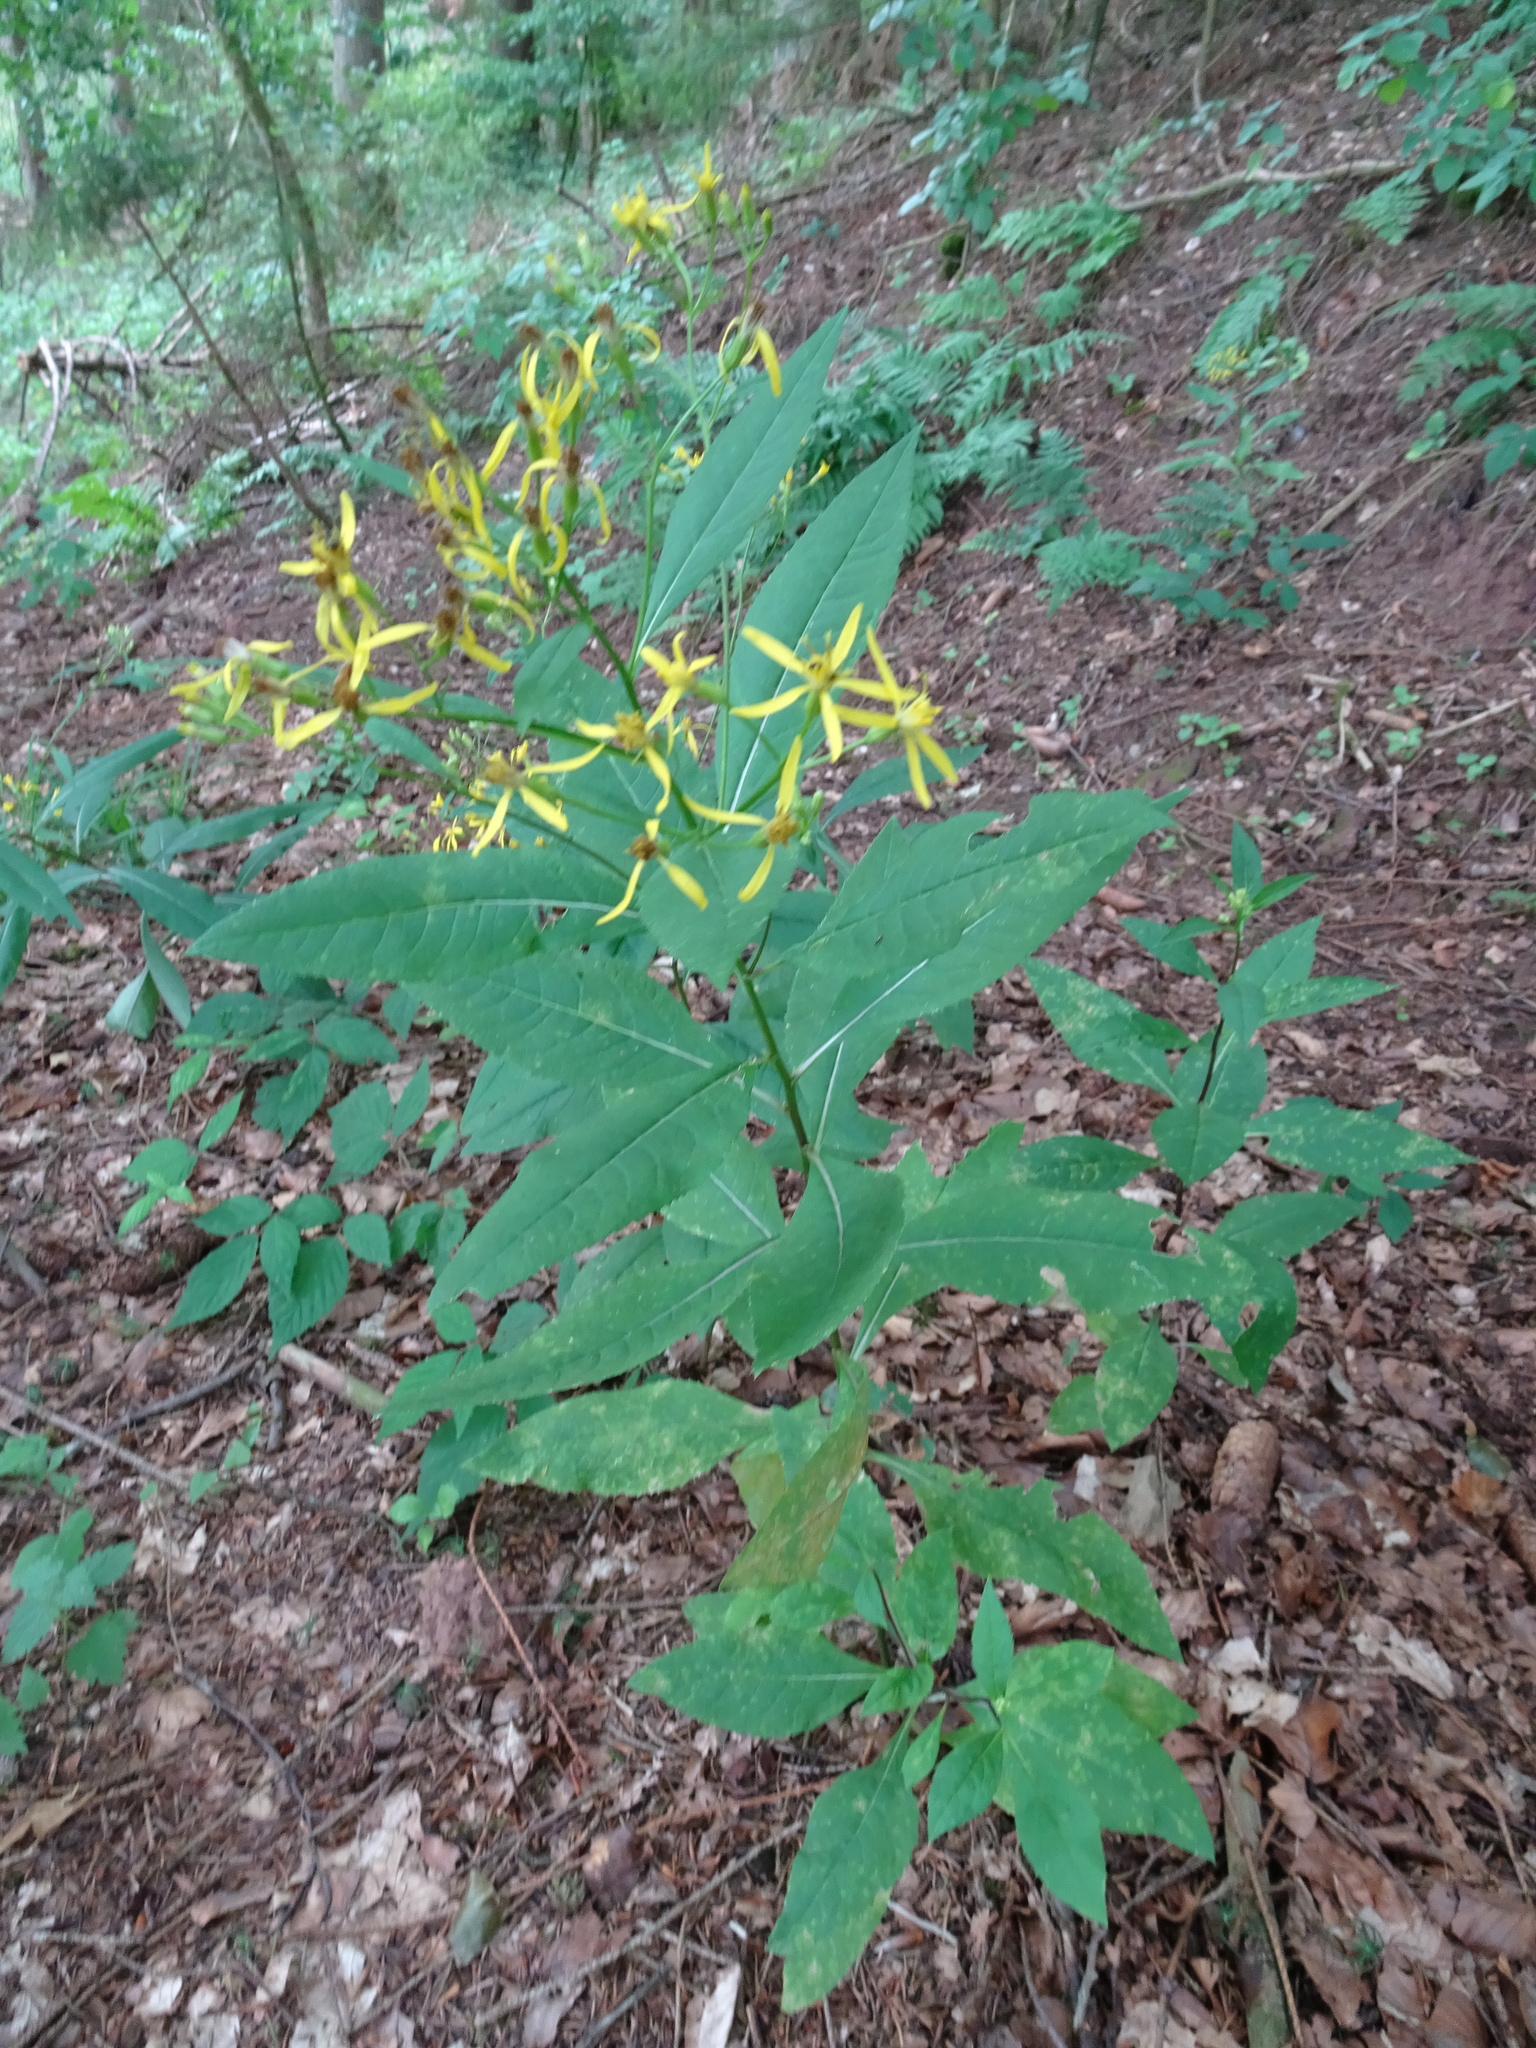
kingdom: Plantae
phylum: Tracheophyta
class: Magnoliopsida
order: Asterales
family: Asteraceae
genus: Senecio
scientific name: Senecio ovatus
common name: Wood ragwort
